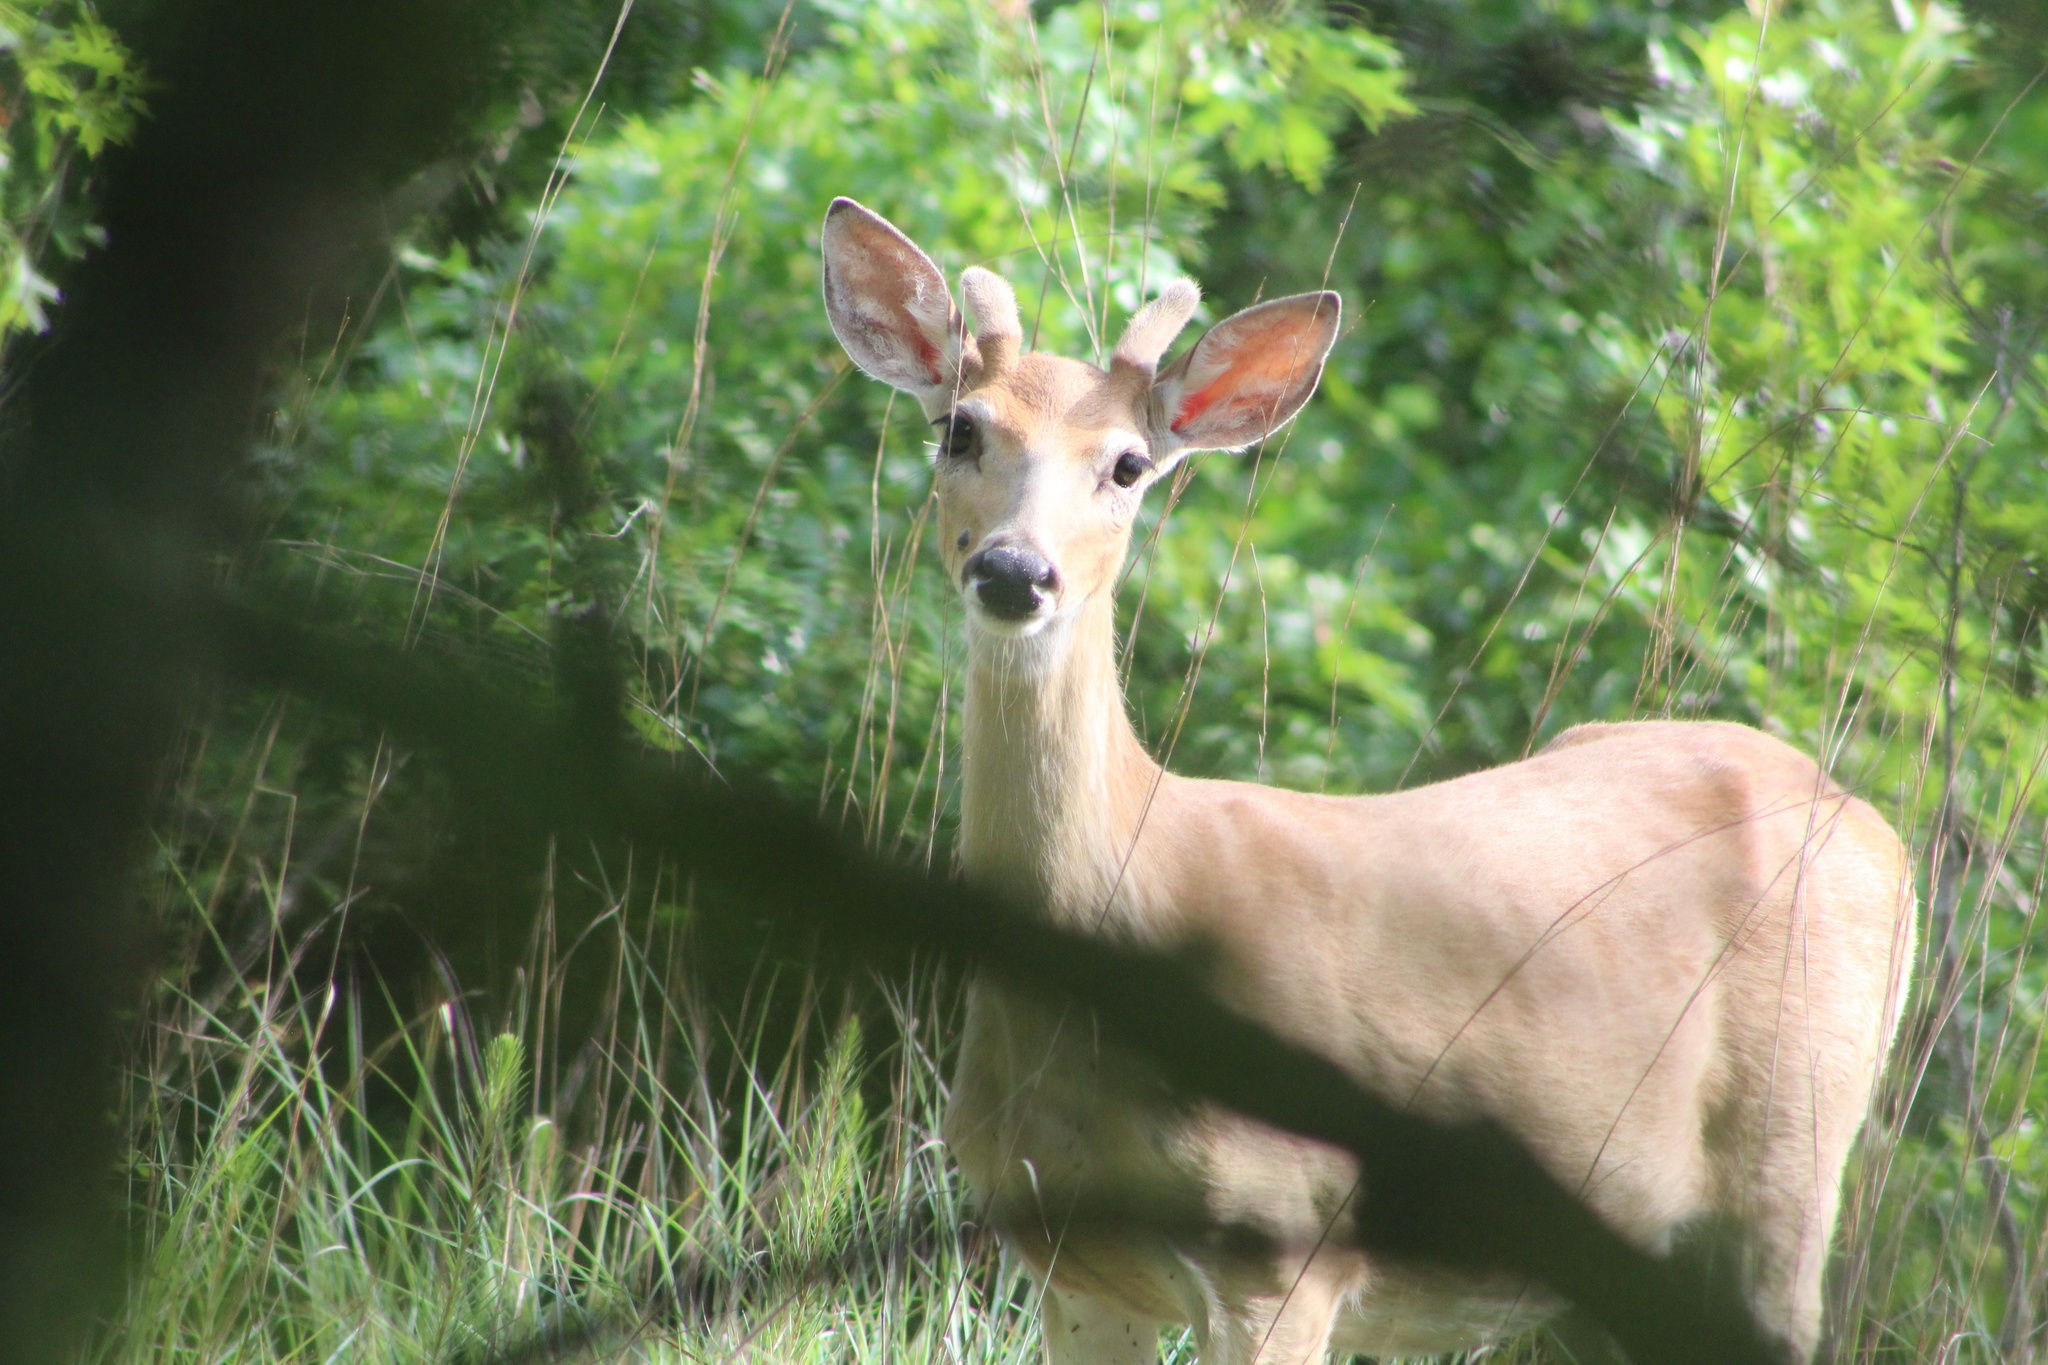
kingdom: Animalia
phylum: Chordata
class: Mammalia
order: Artiodactyla
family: Cervidae
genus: Odocoileus
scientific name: Odocoileus virginianus
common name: White-tailed deer
